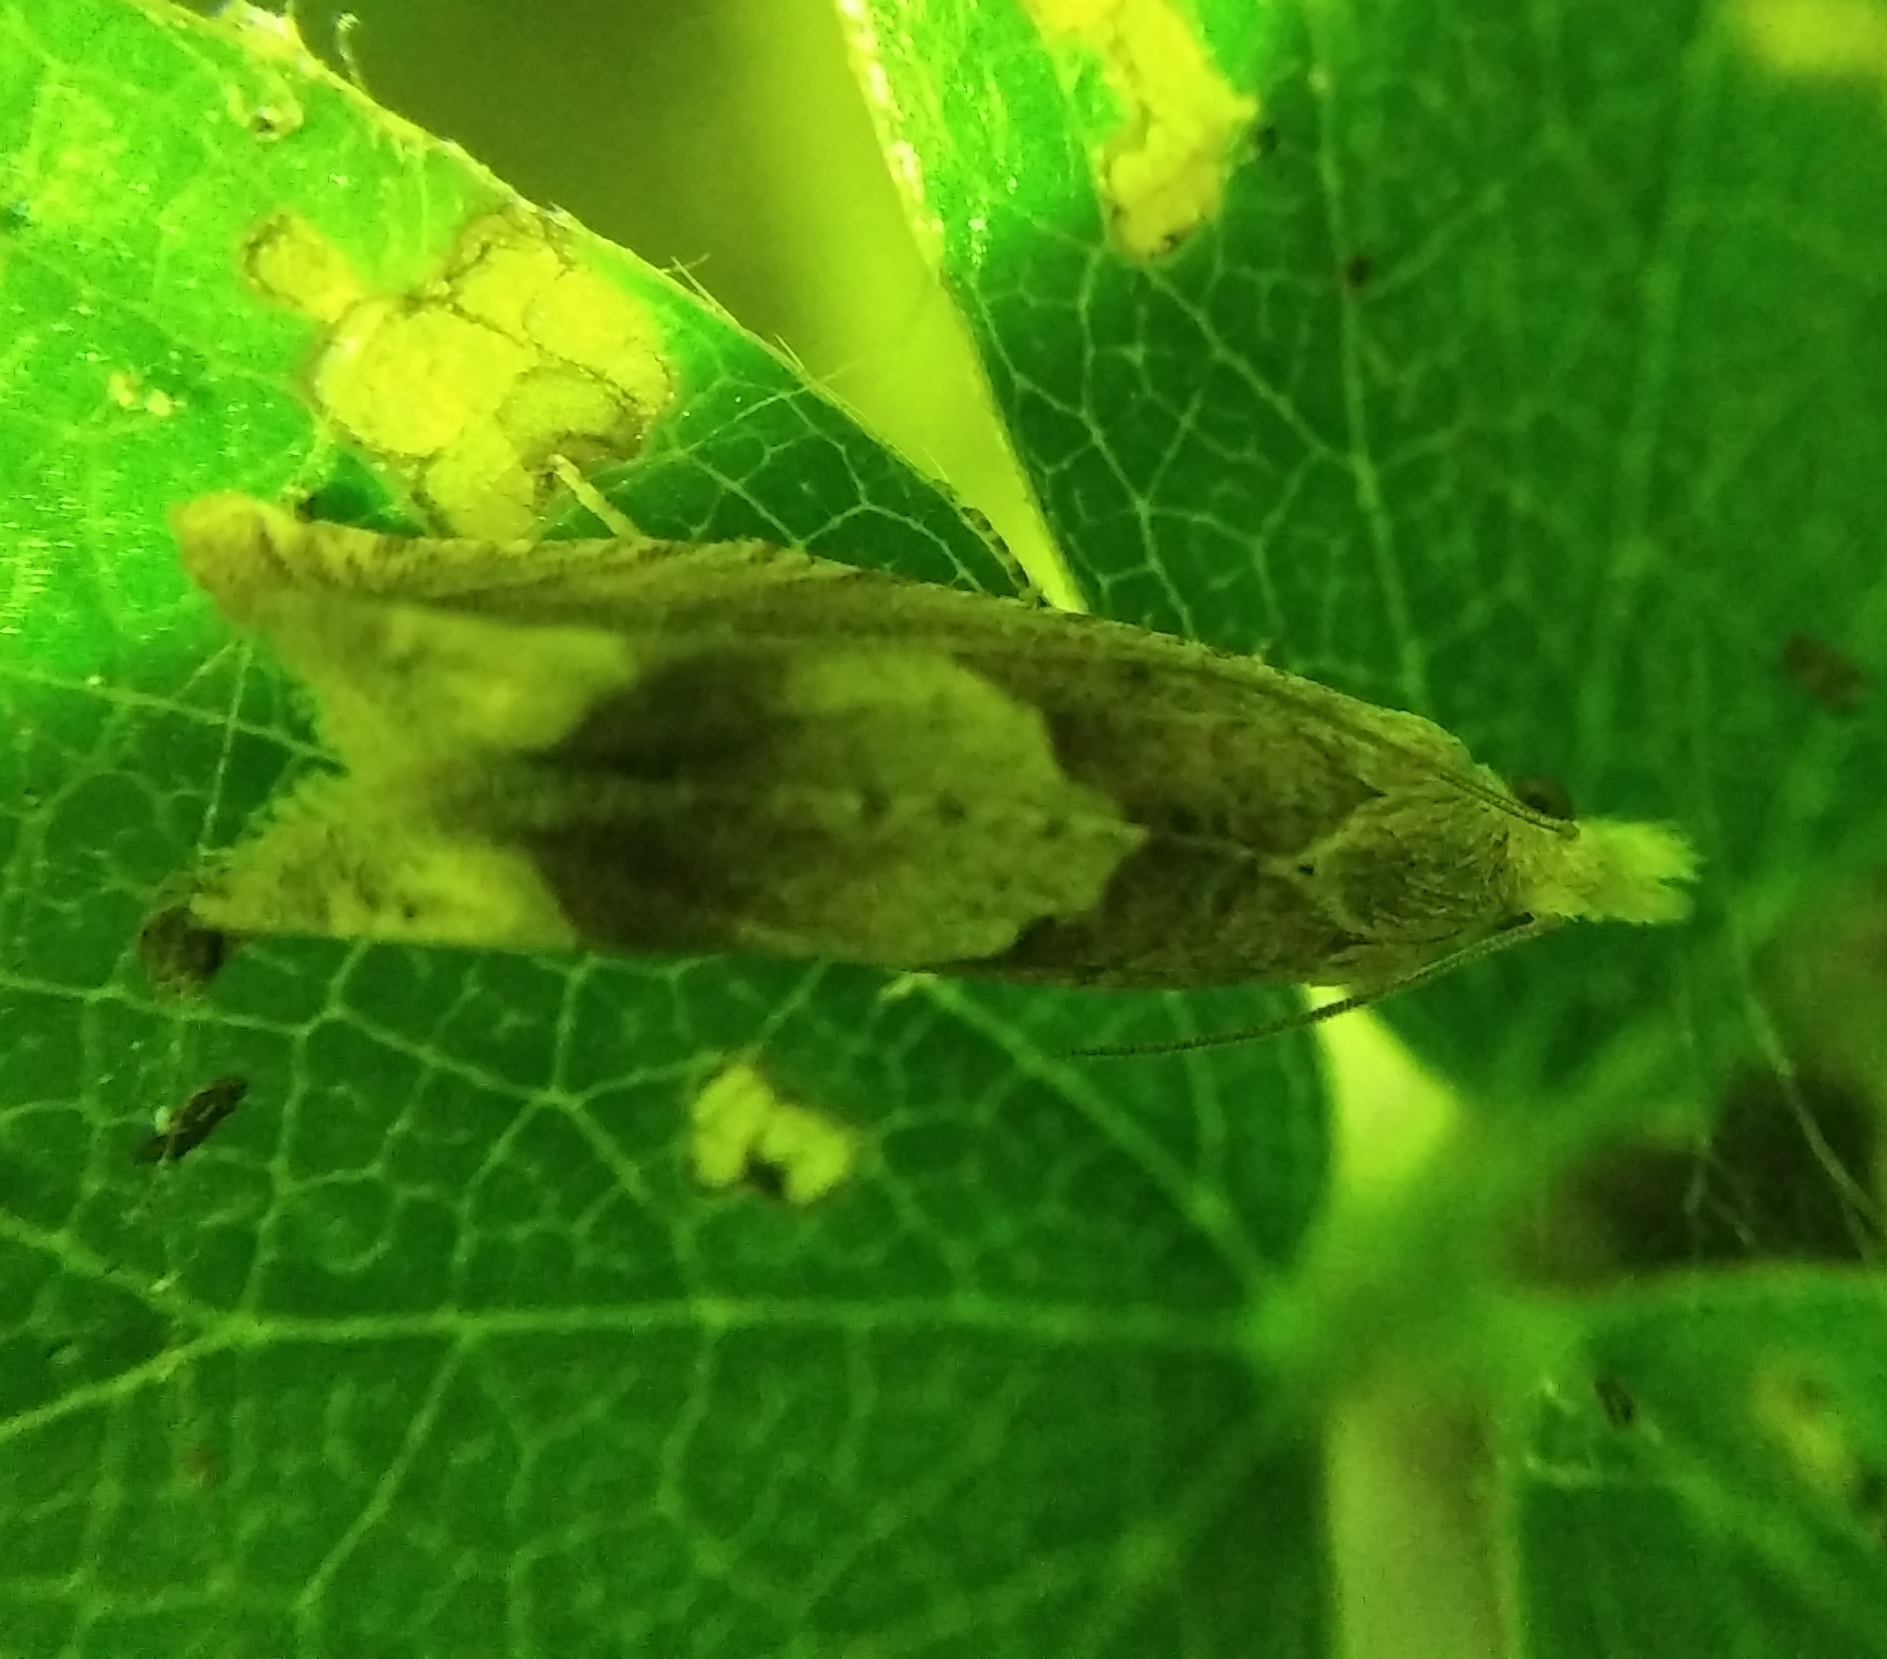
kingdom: Animalia
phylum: Arthropoda
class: Insecta
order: Lepidoptera
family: Tortricidae
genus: Eucosma
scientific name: Eucosma conterminana
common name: Pale lettuce bell
